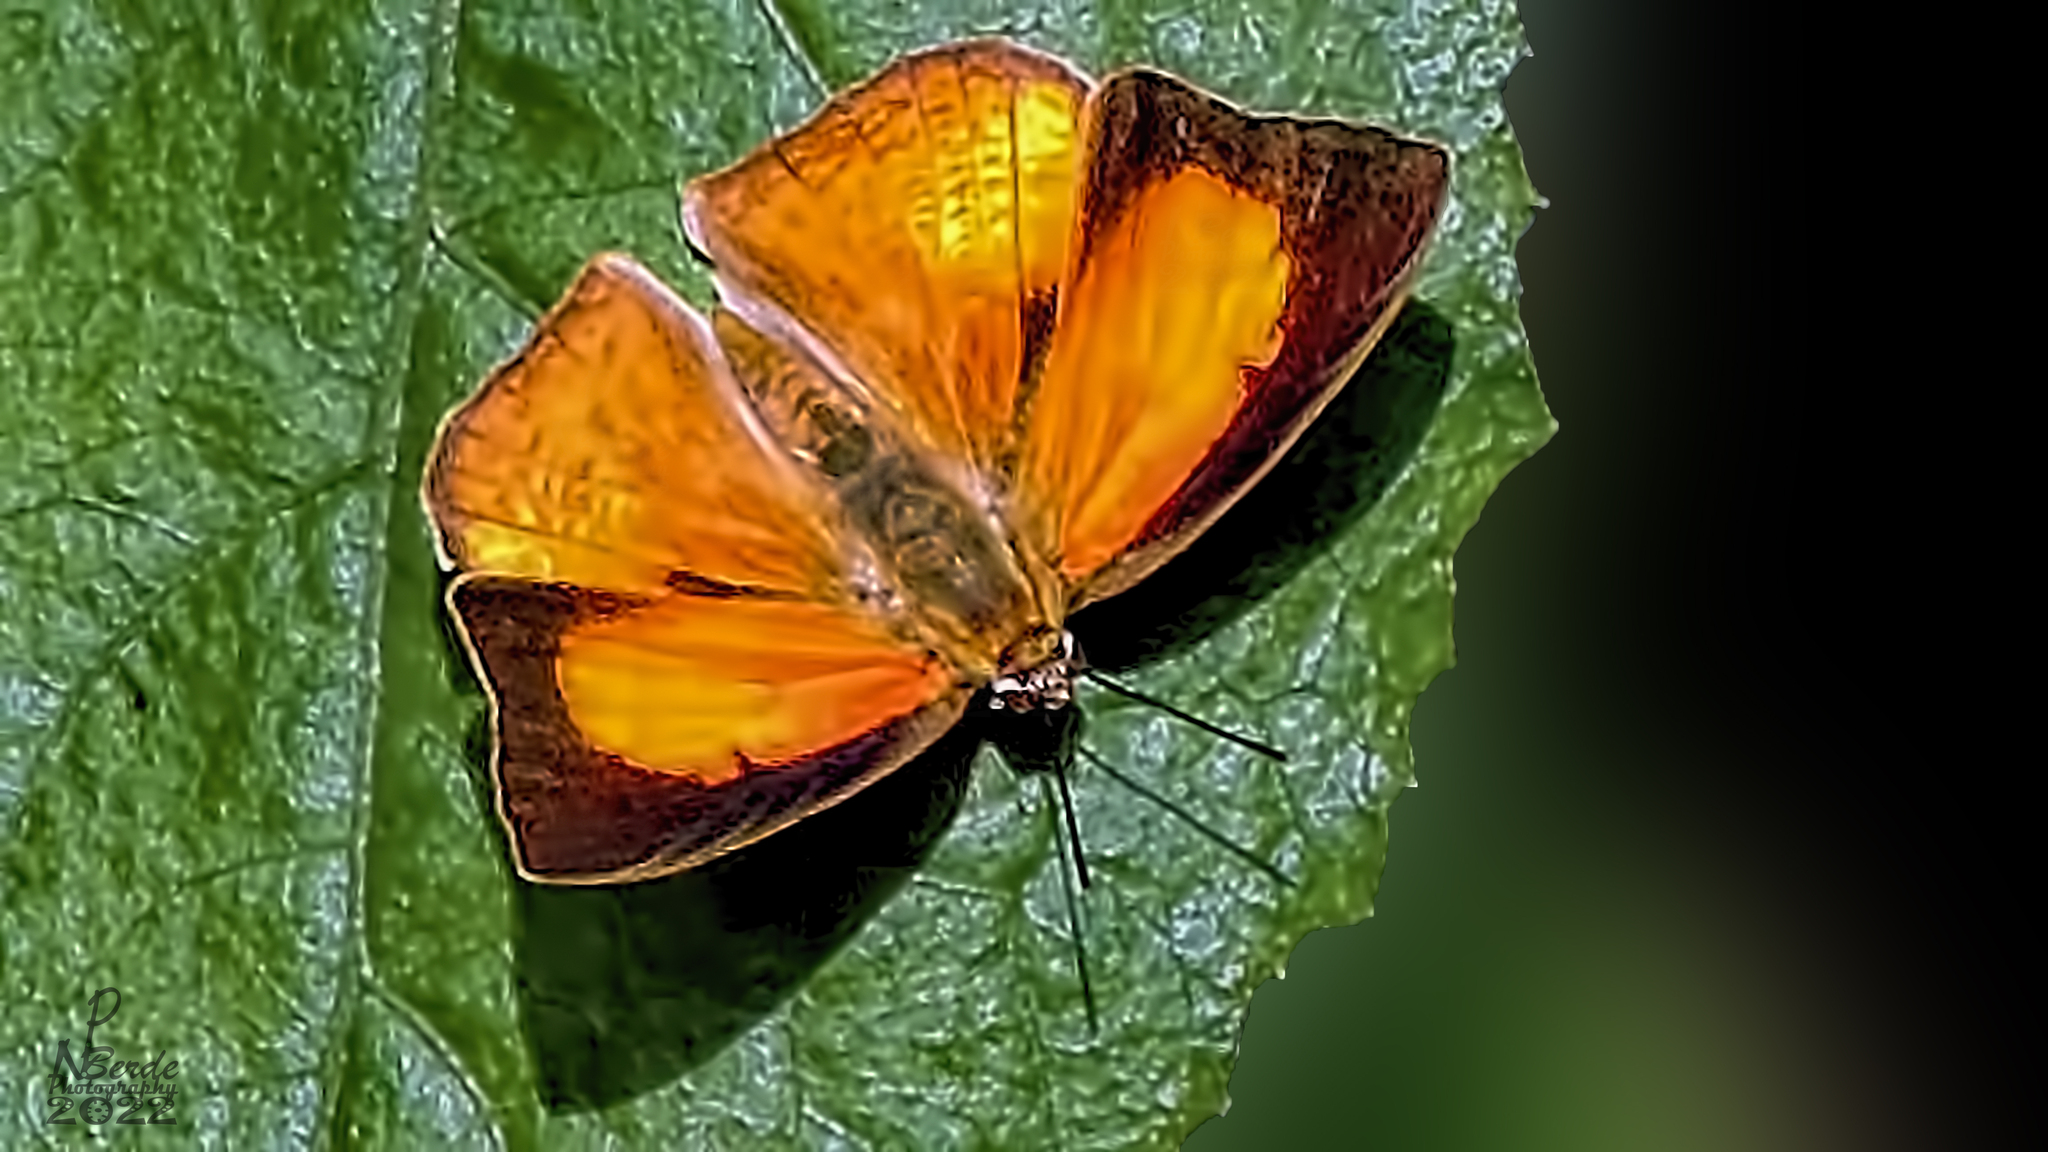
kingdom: Animalia
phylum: Arthropoda
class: Insecta
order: Lepidoptera
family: Lycaenidae
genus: Curetis
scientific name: Curetis acuta
